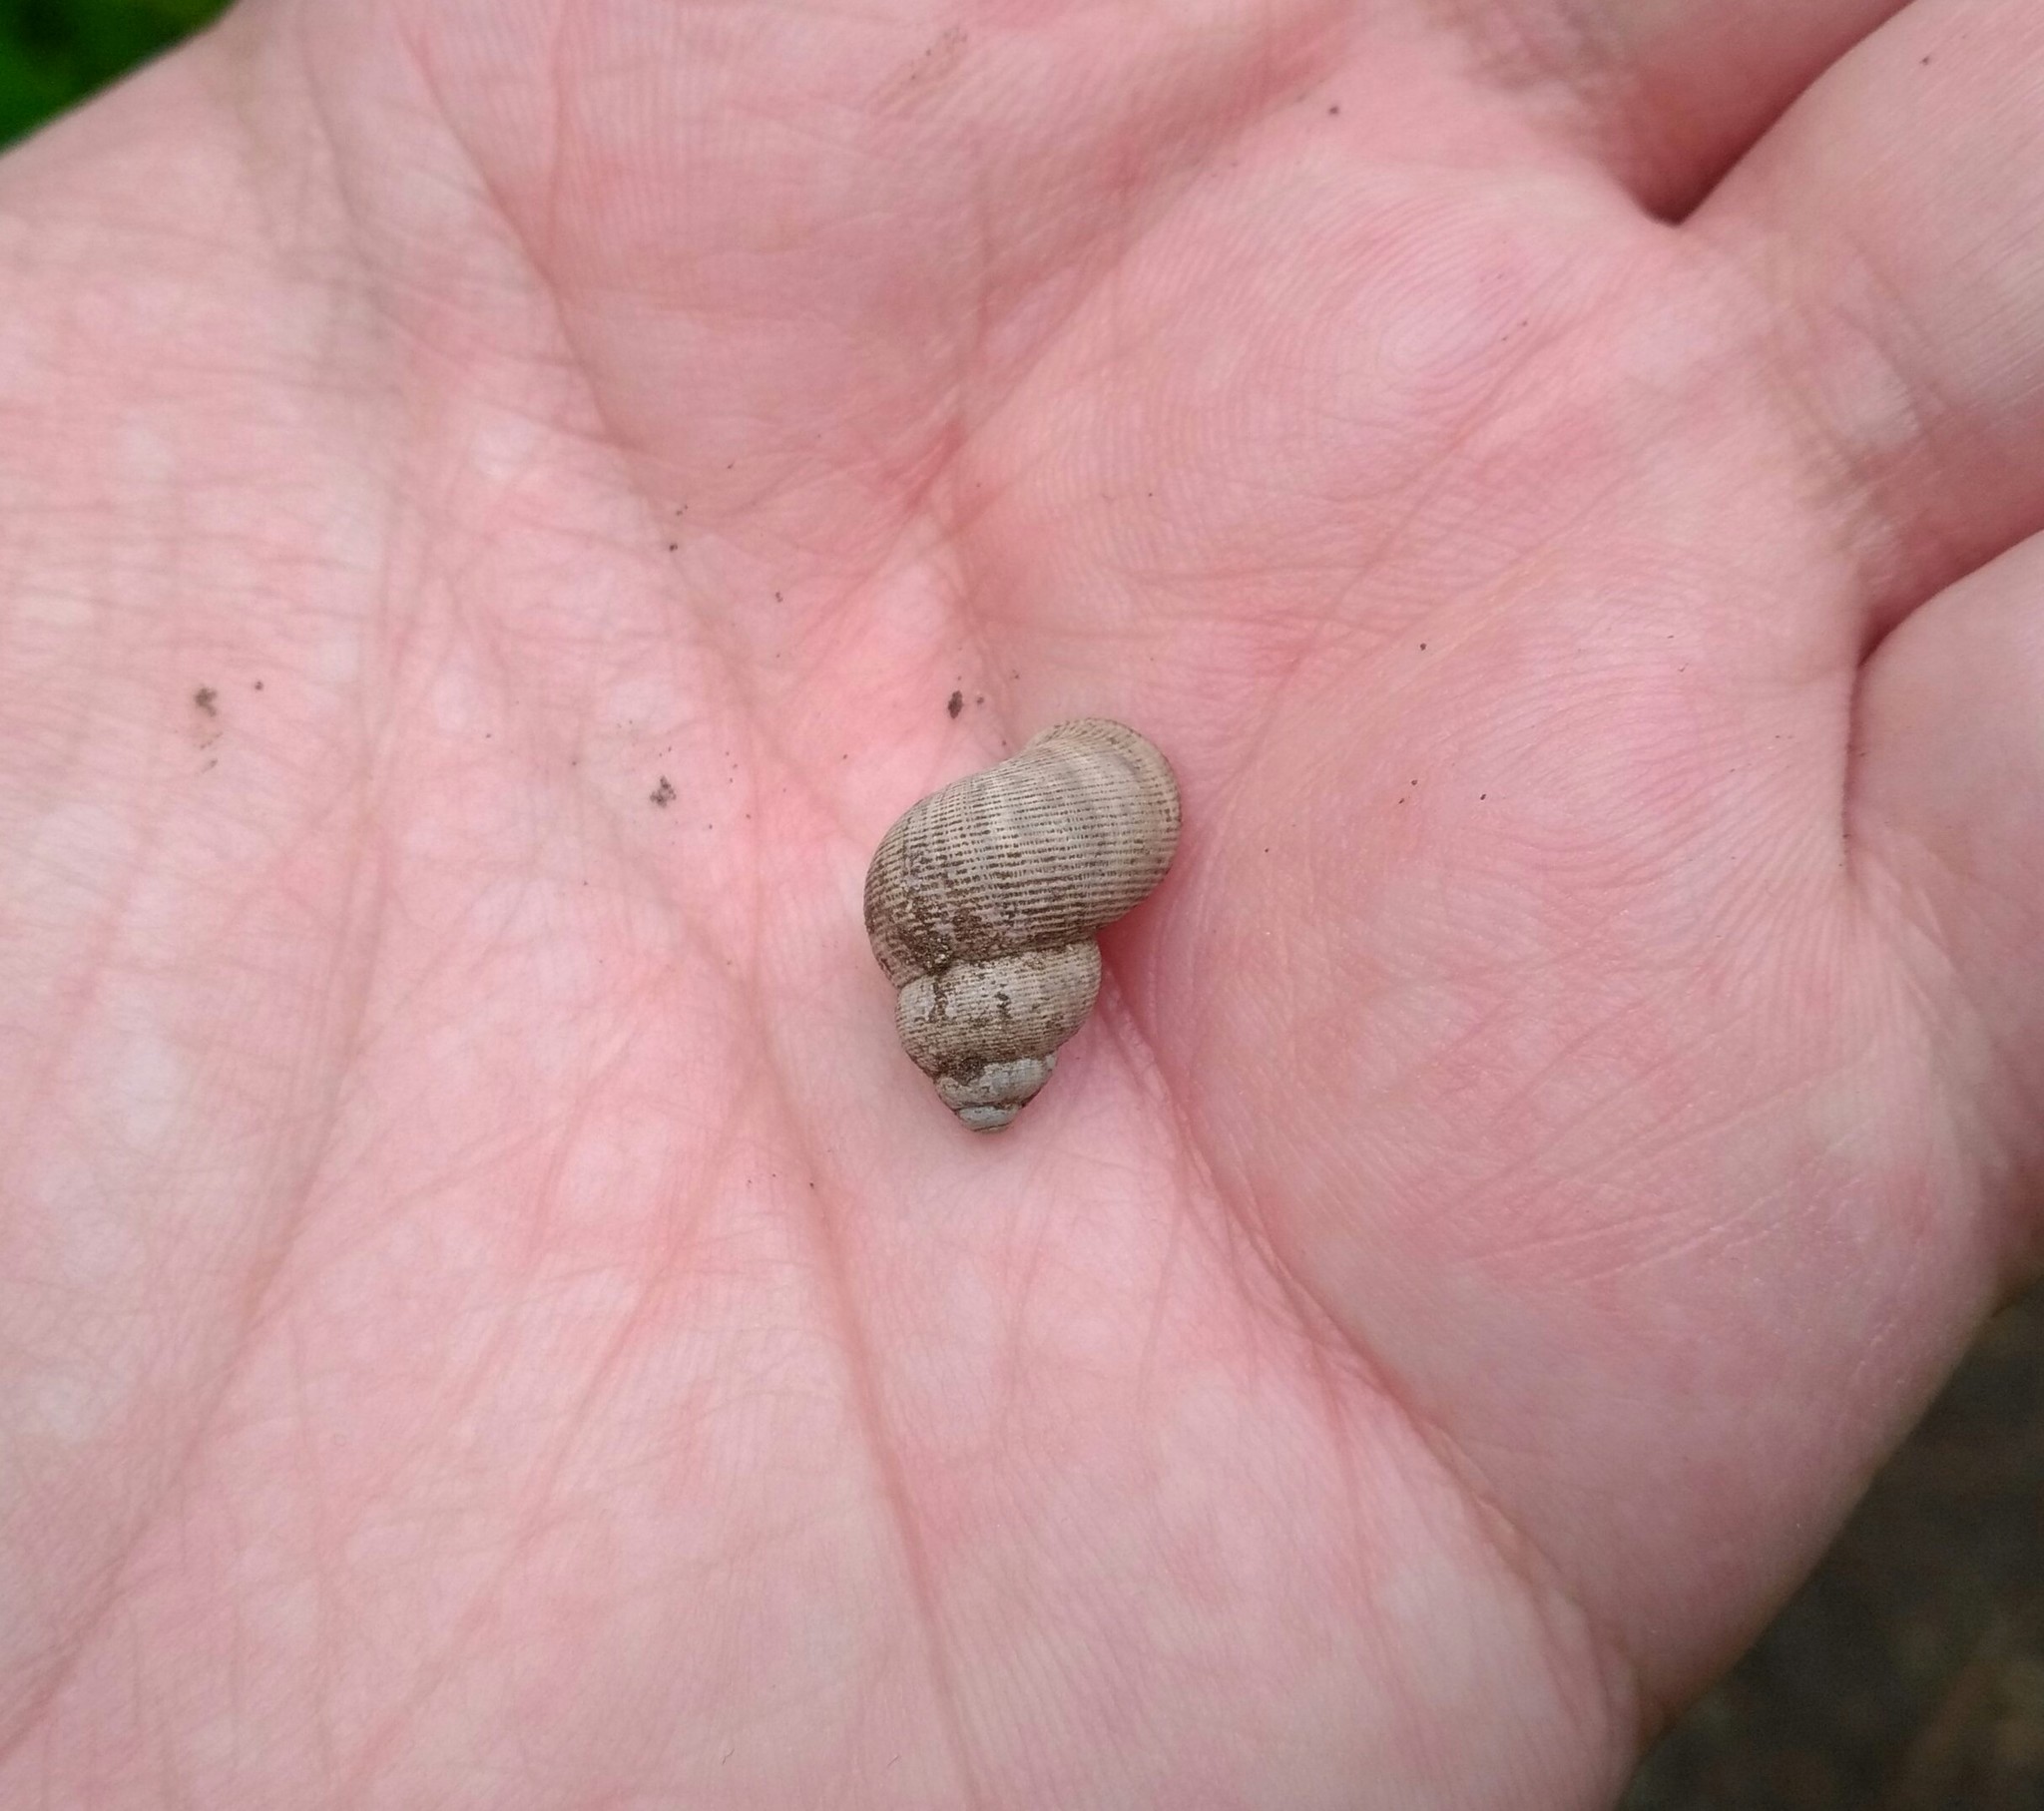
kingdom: Animalia
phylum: Mollusca
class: Gastropoda
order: Littorinimorpha
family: Pomatiidae
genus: Pomatias
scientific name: Pomatias elegans
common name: Red-mouthed snail
